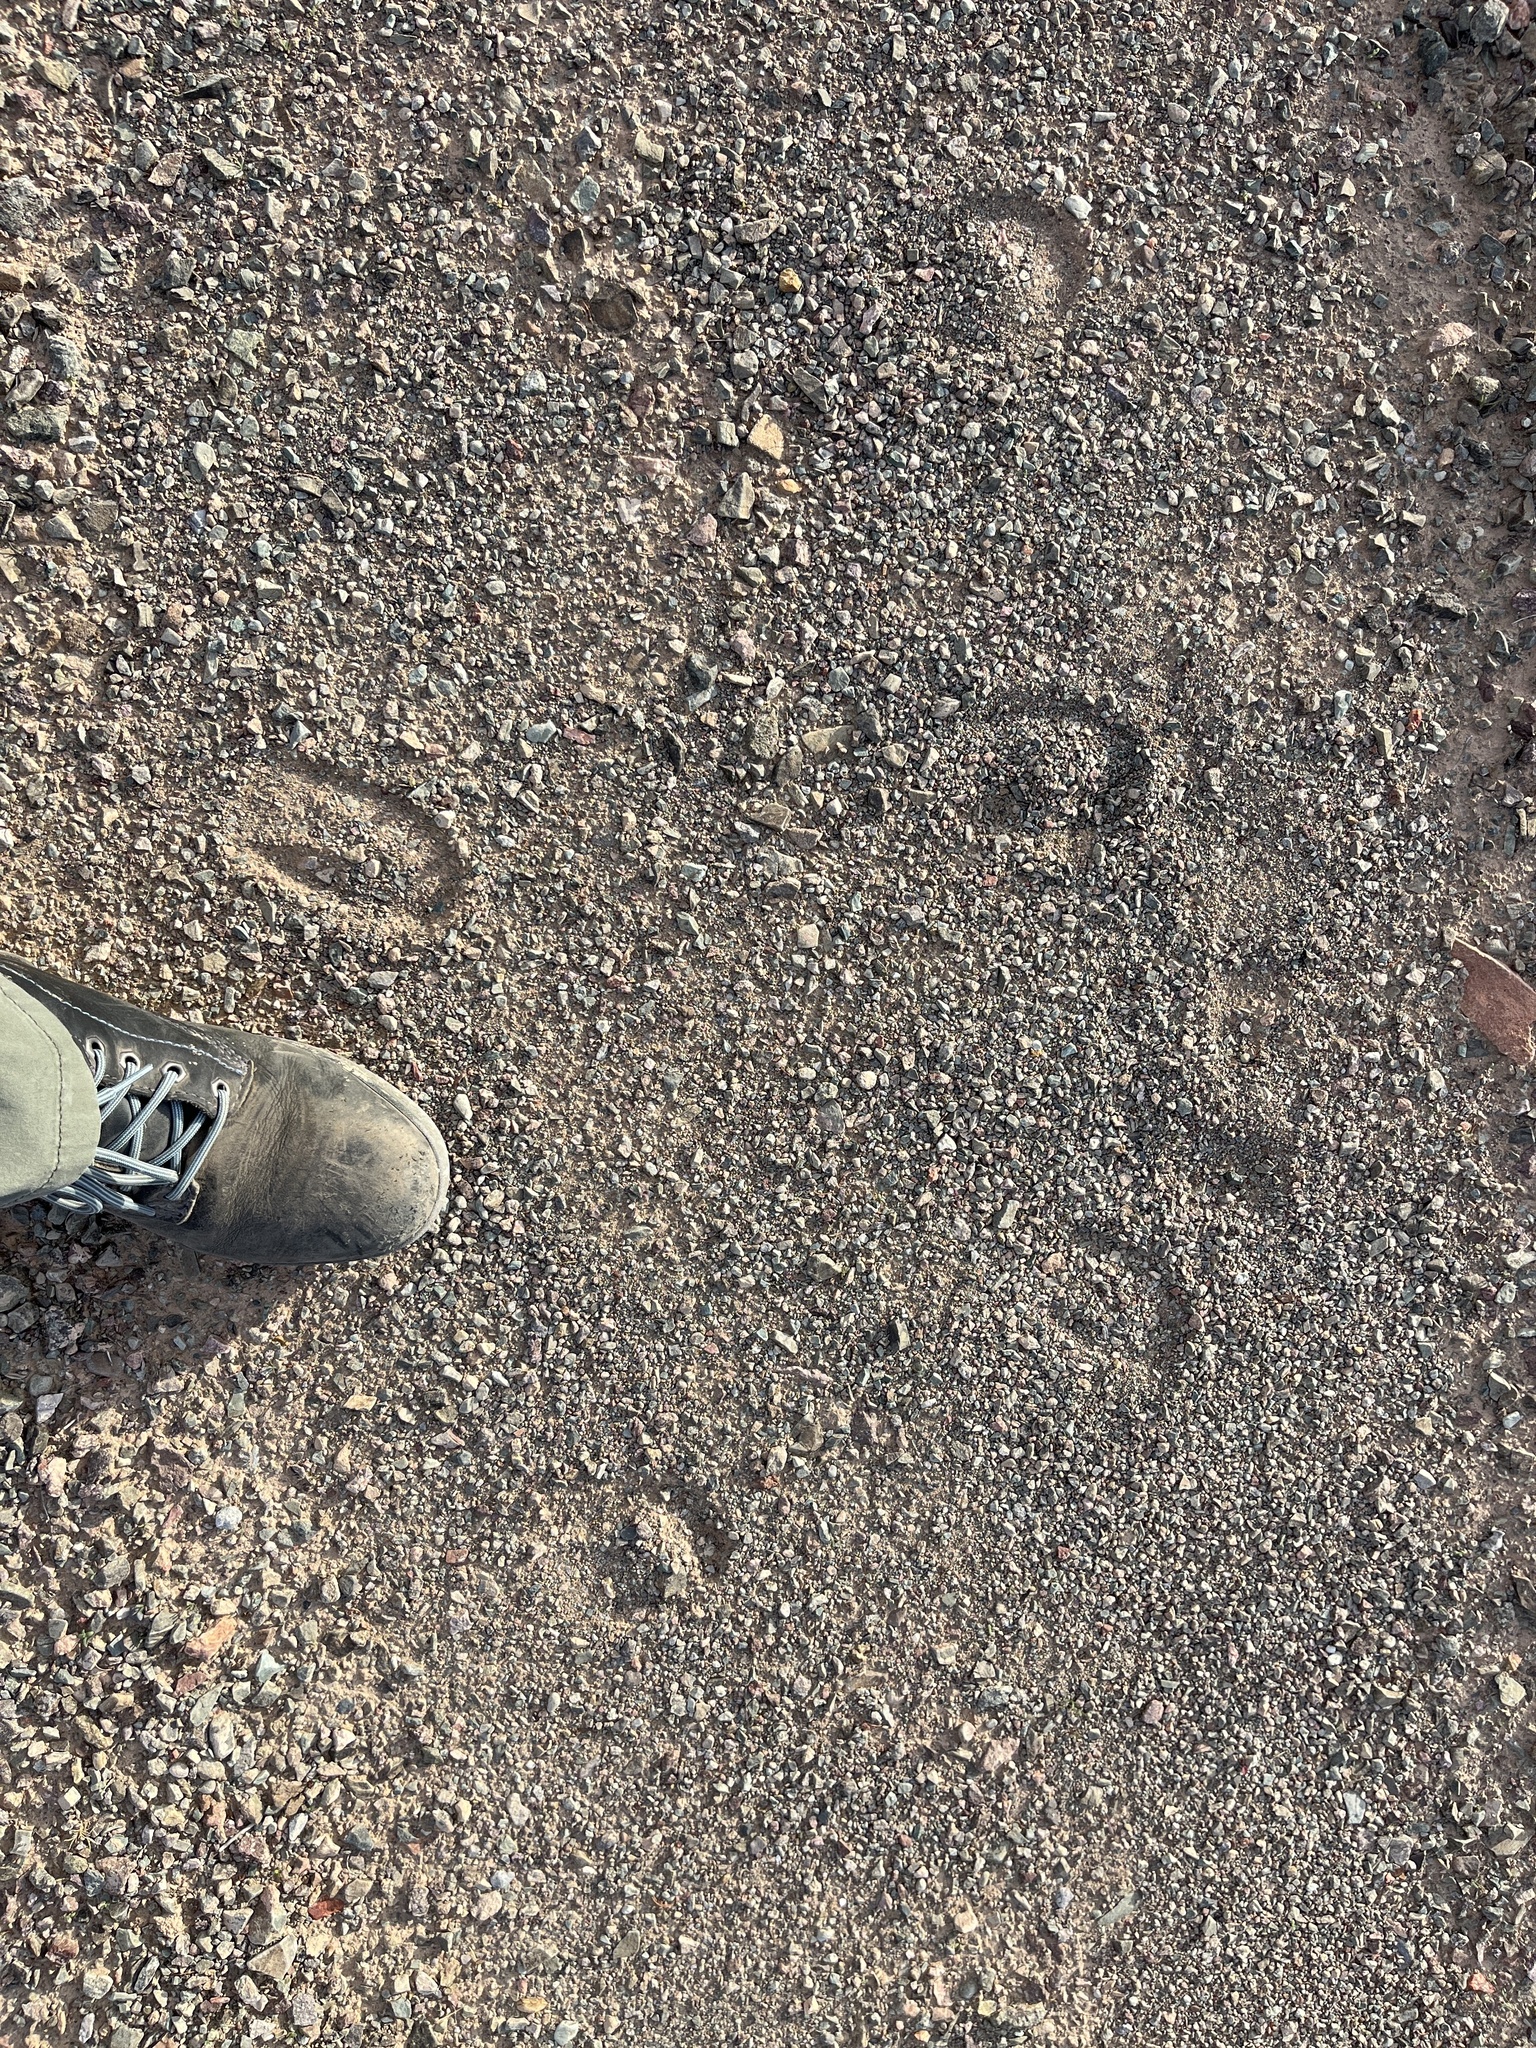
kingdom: Animalia
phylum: Chordata
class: Mammalia
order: Perissodactyla
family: Equidae
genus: Equus
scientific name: Equus asinus
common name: Ass
